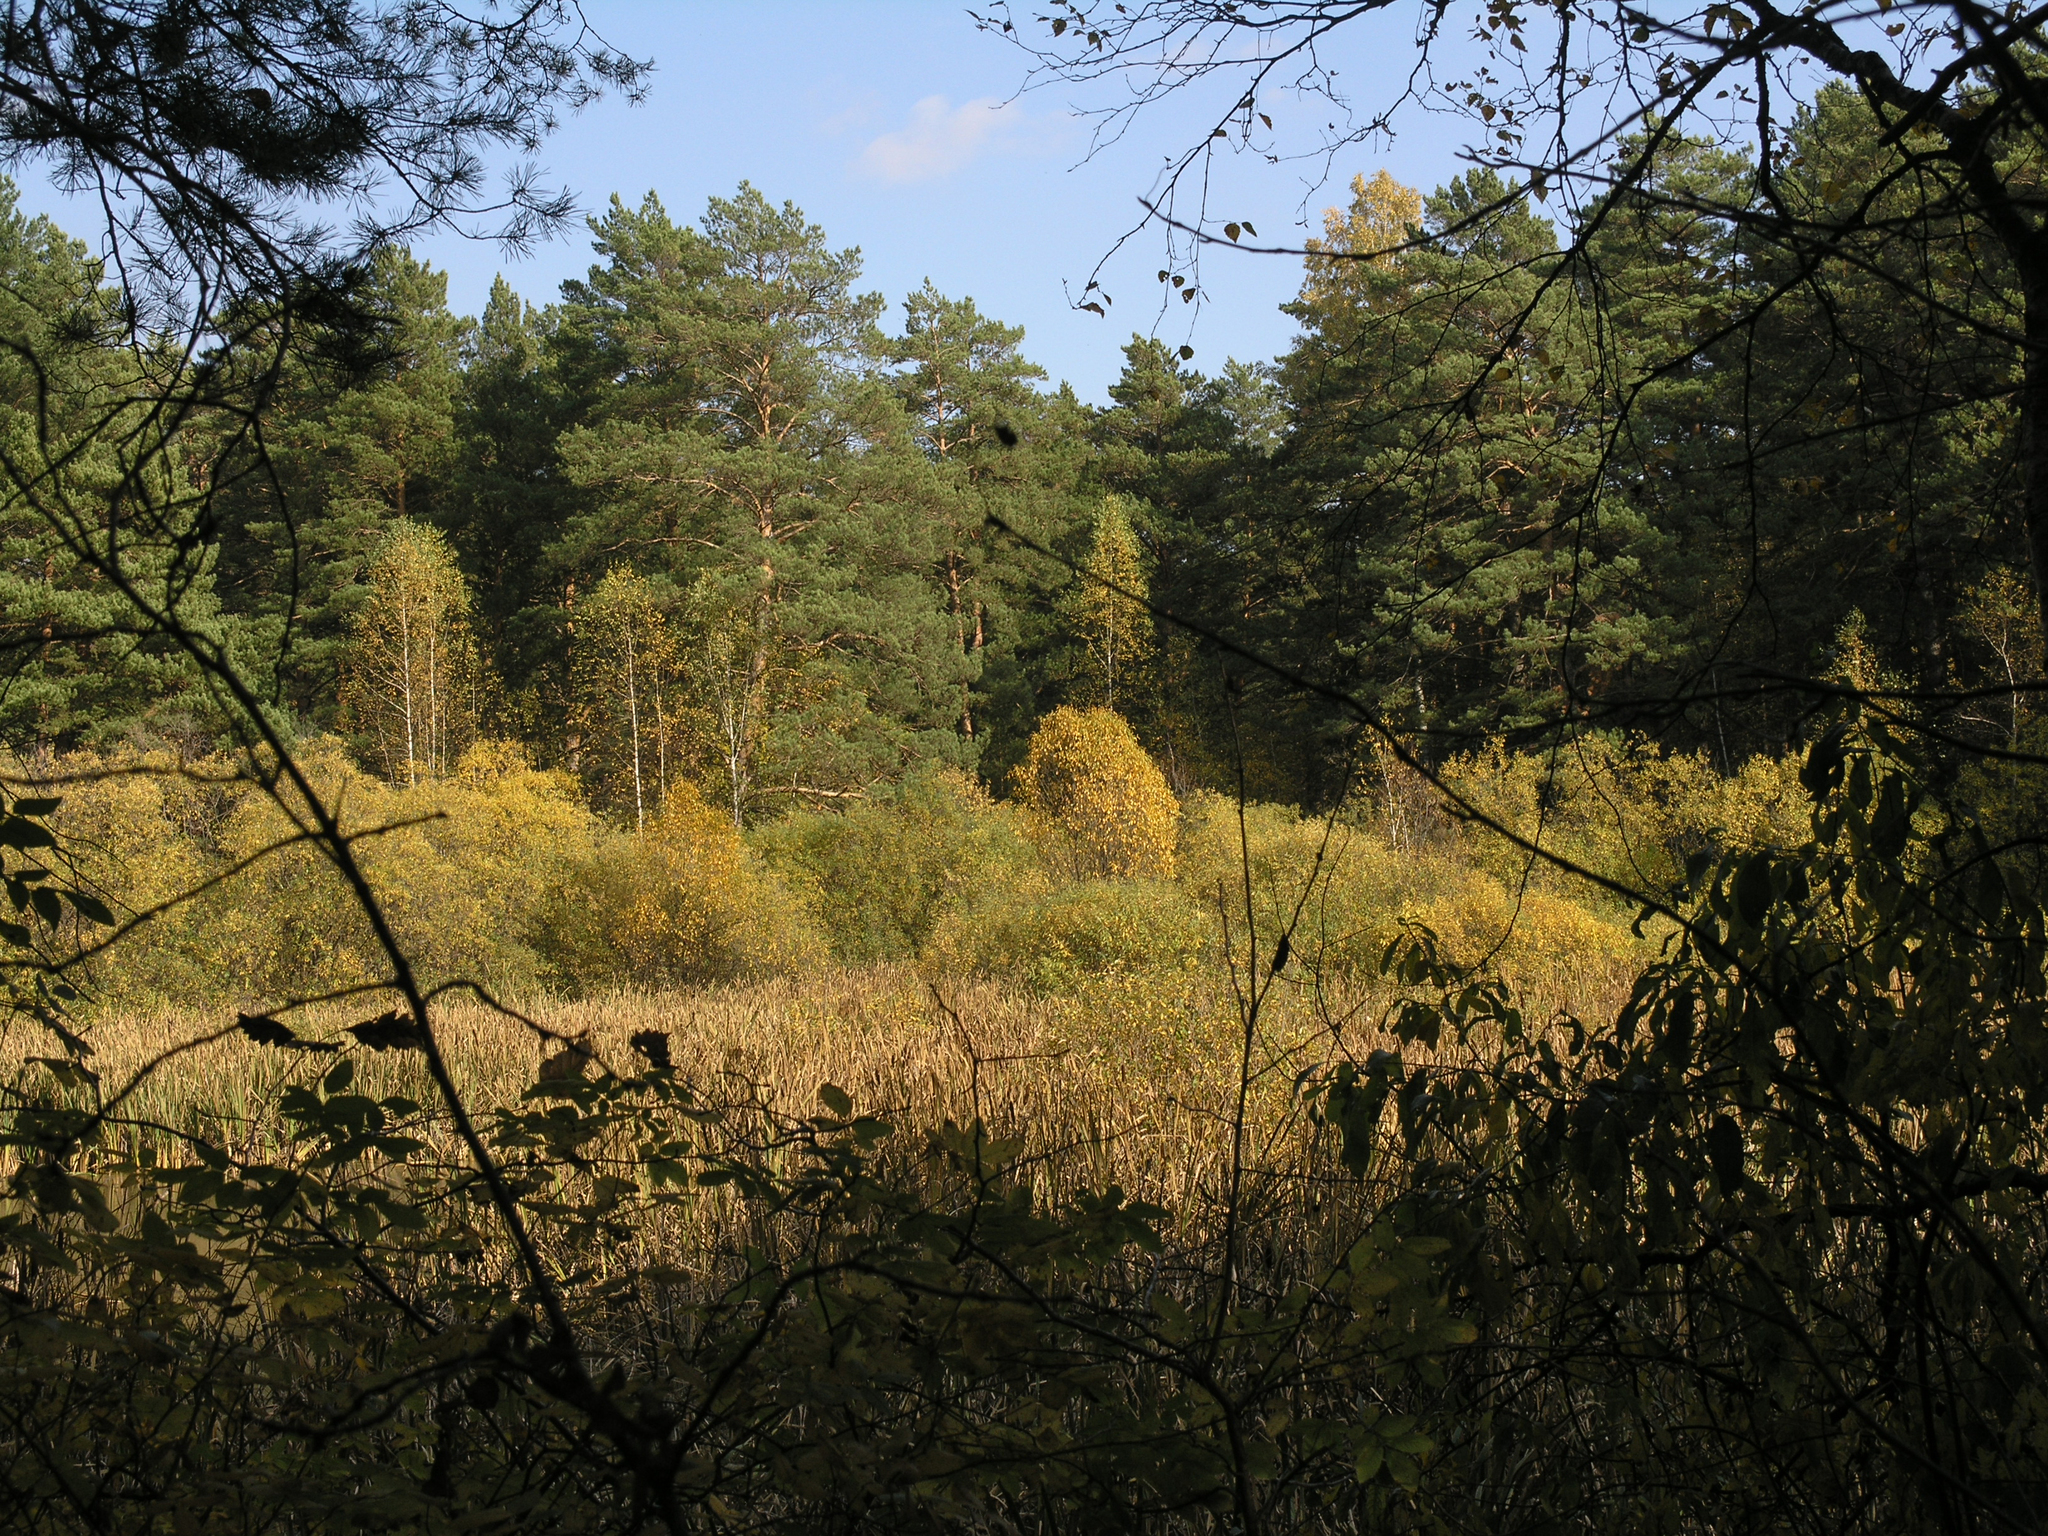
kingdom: Plantae
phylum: Tracheophyta
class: Pinopsida
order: Pinales
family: Pinaceae
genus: Pinus
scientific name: Pinus sylvestris
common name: Scots pine
